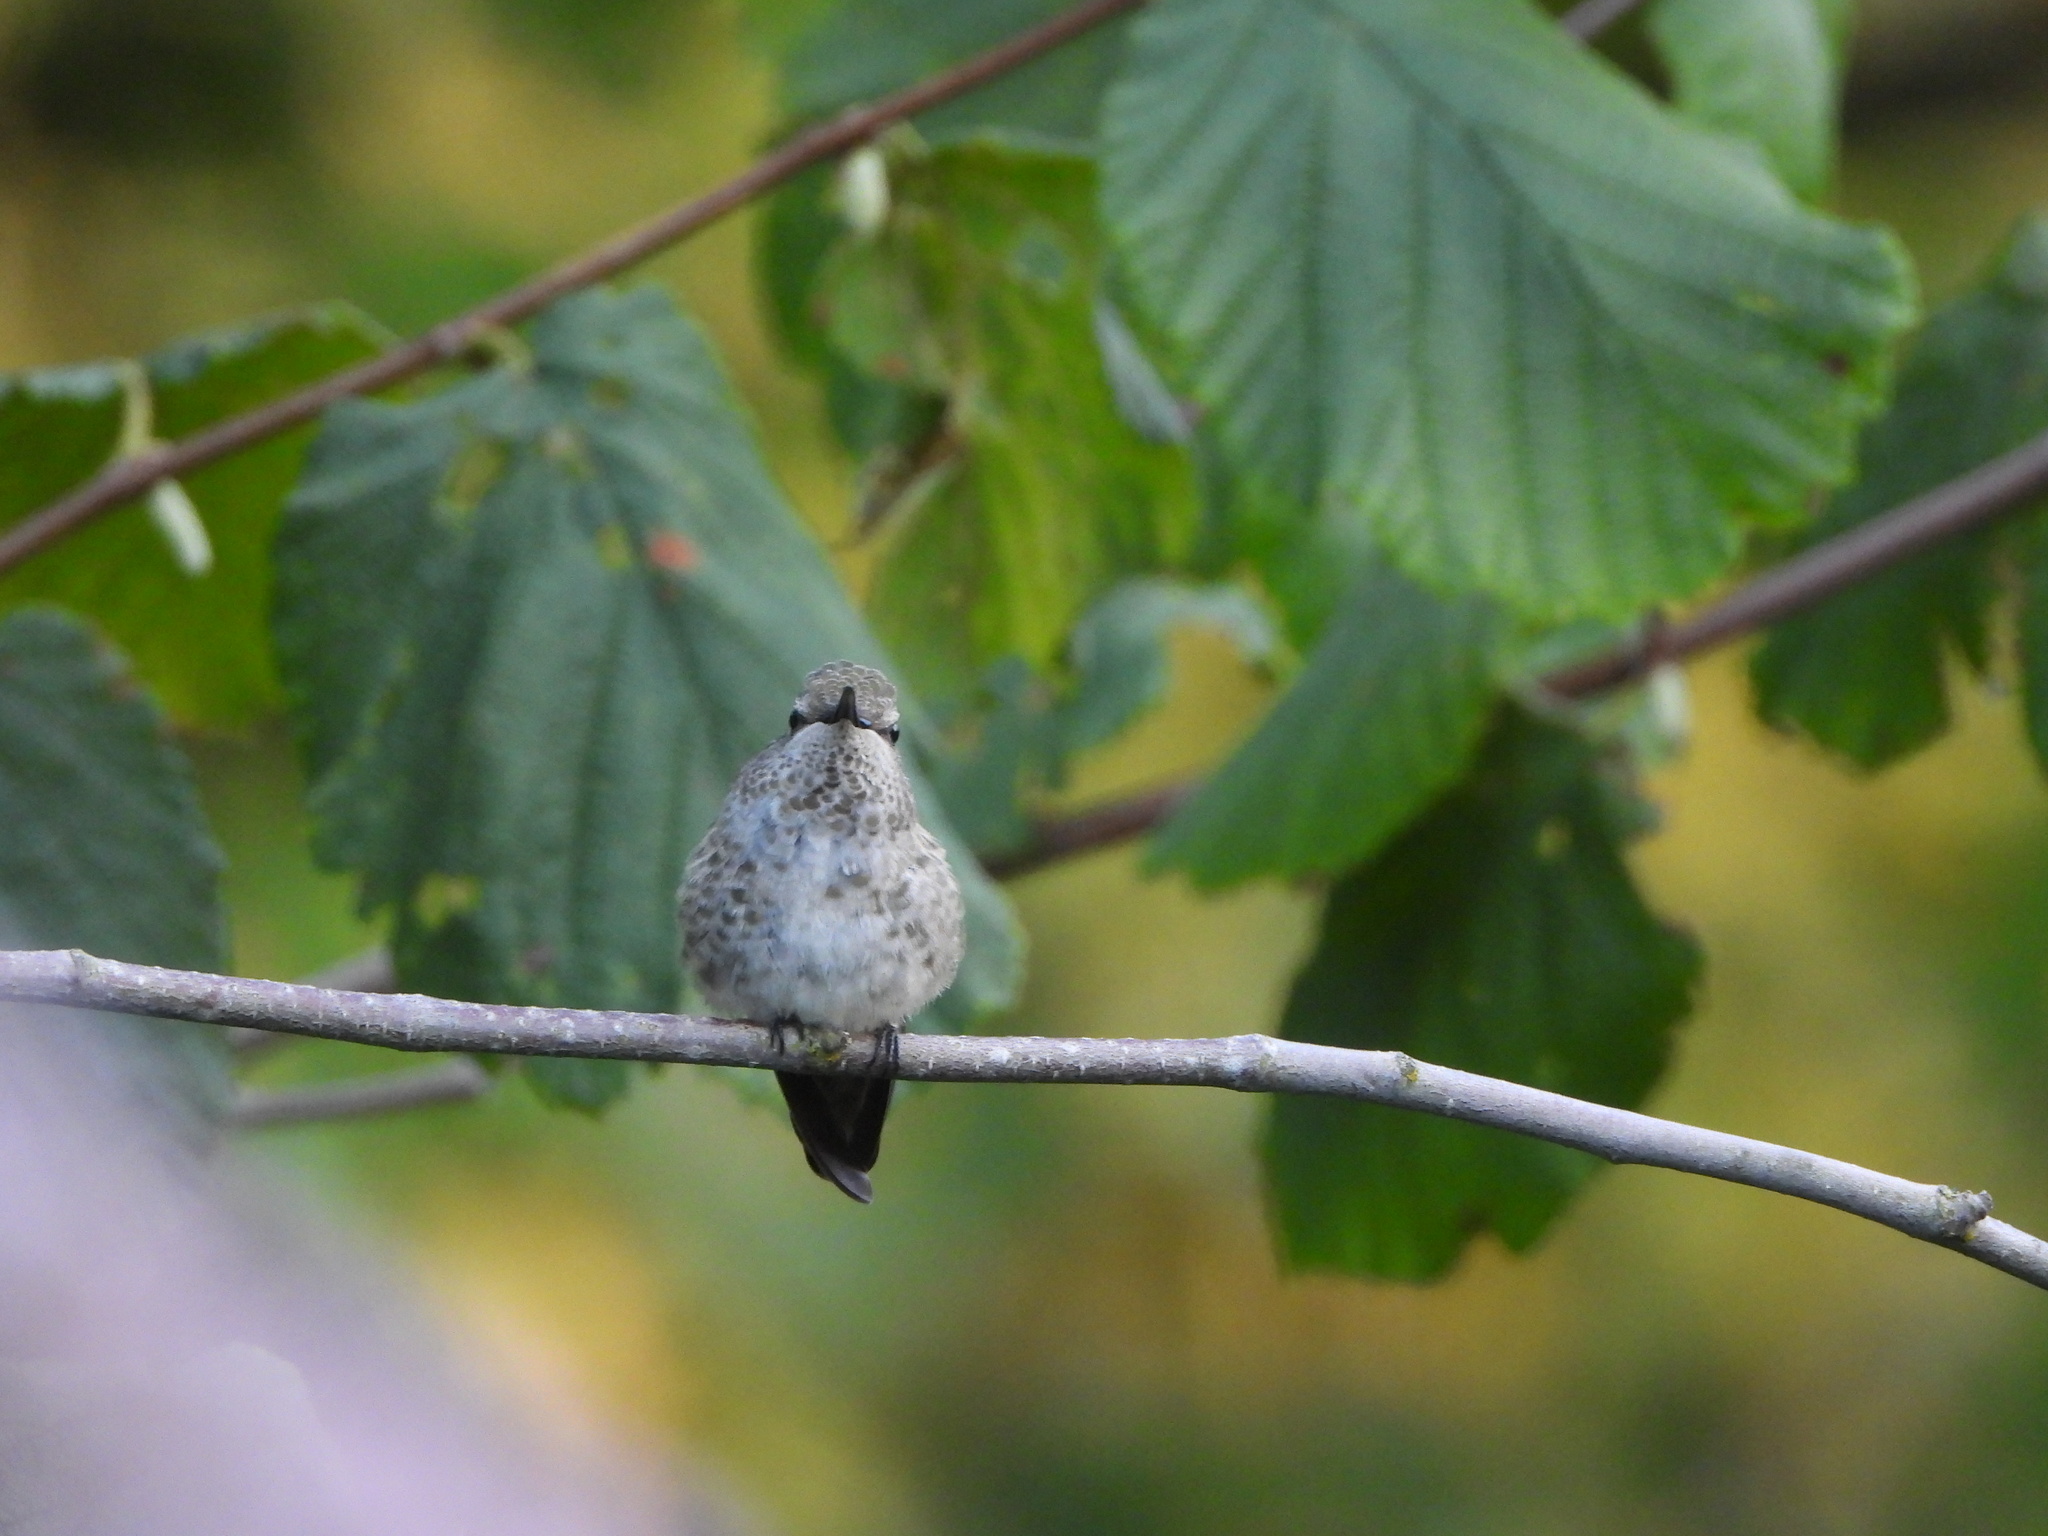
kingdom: Animalia
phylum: Chordata
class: Aves
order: Apodiformes
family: Trochilidae
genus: Calypte
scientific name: Calypte anna
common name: Anna's hummingbird
